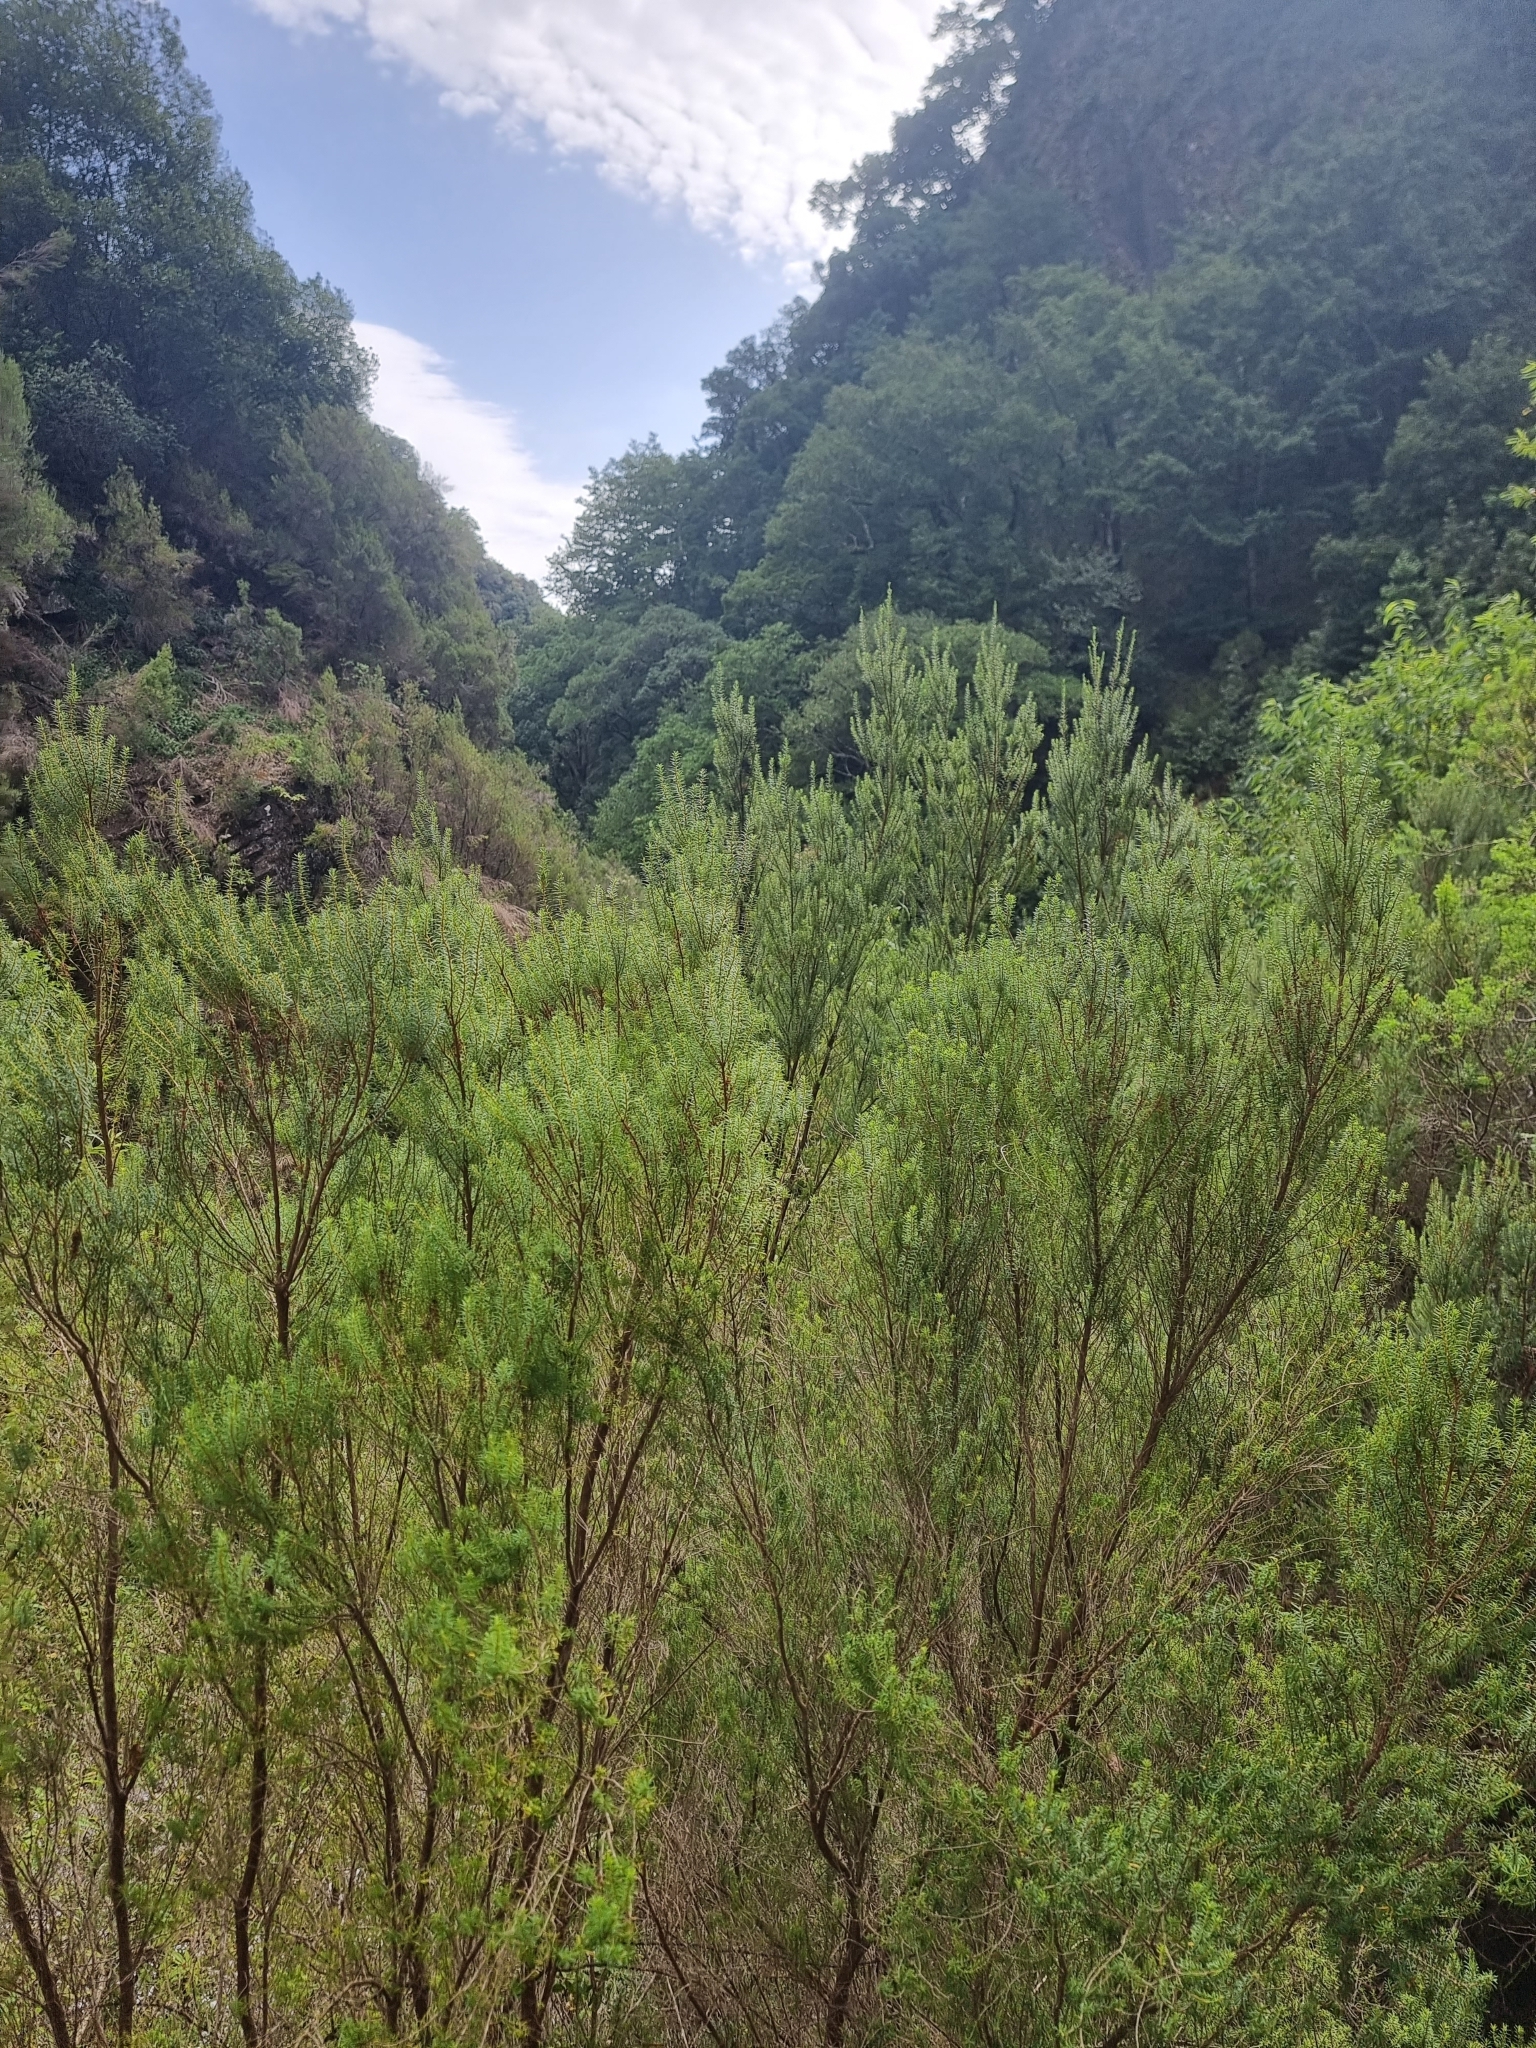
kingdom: Plantae
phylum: Tracheophyta
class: Magnoliopsida
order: Ericales
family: Ericaceae
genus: Erica
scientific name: Erica platycodon
